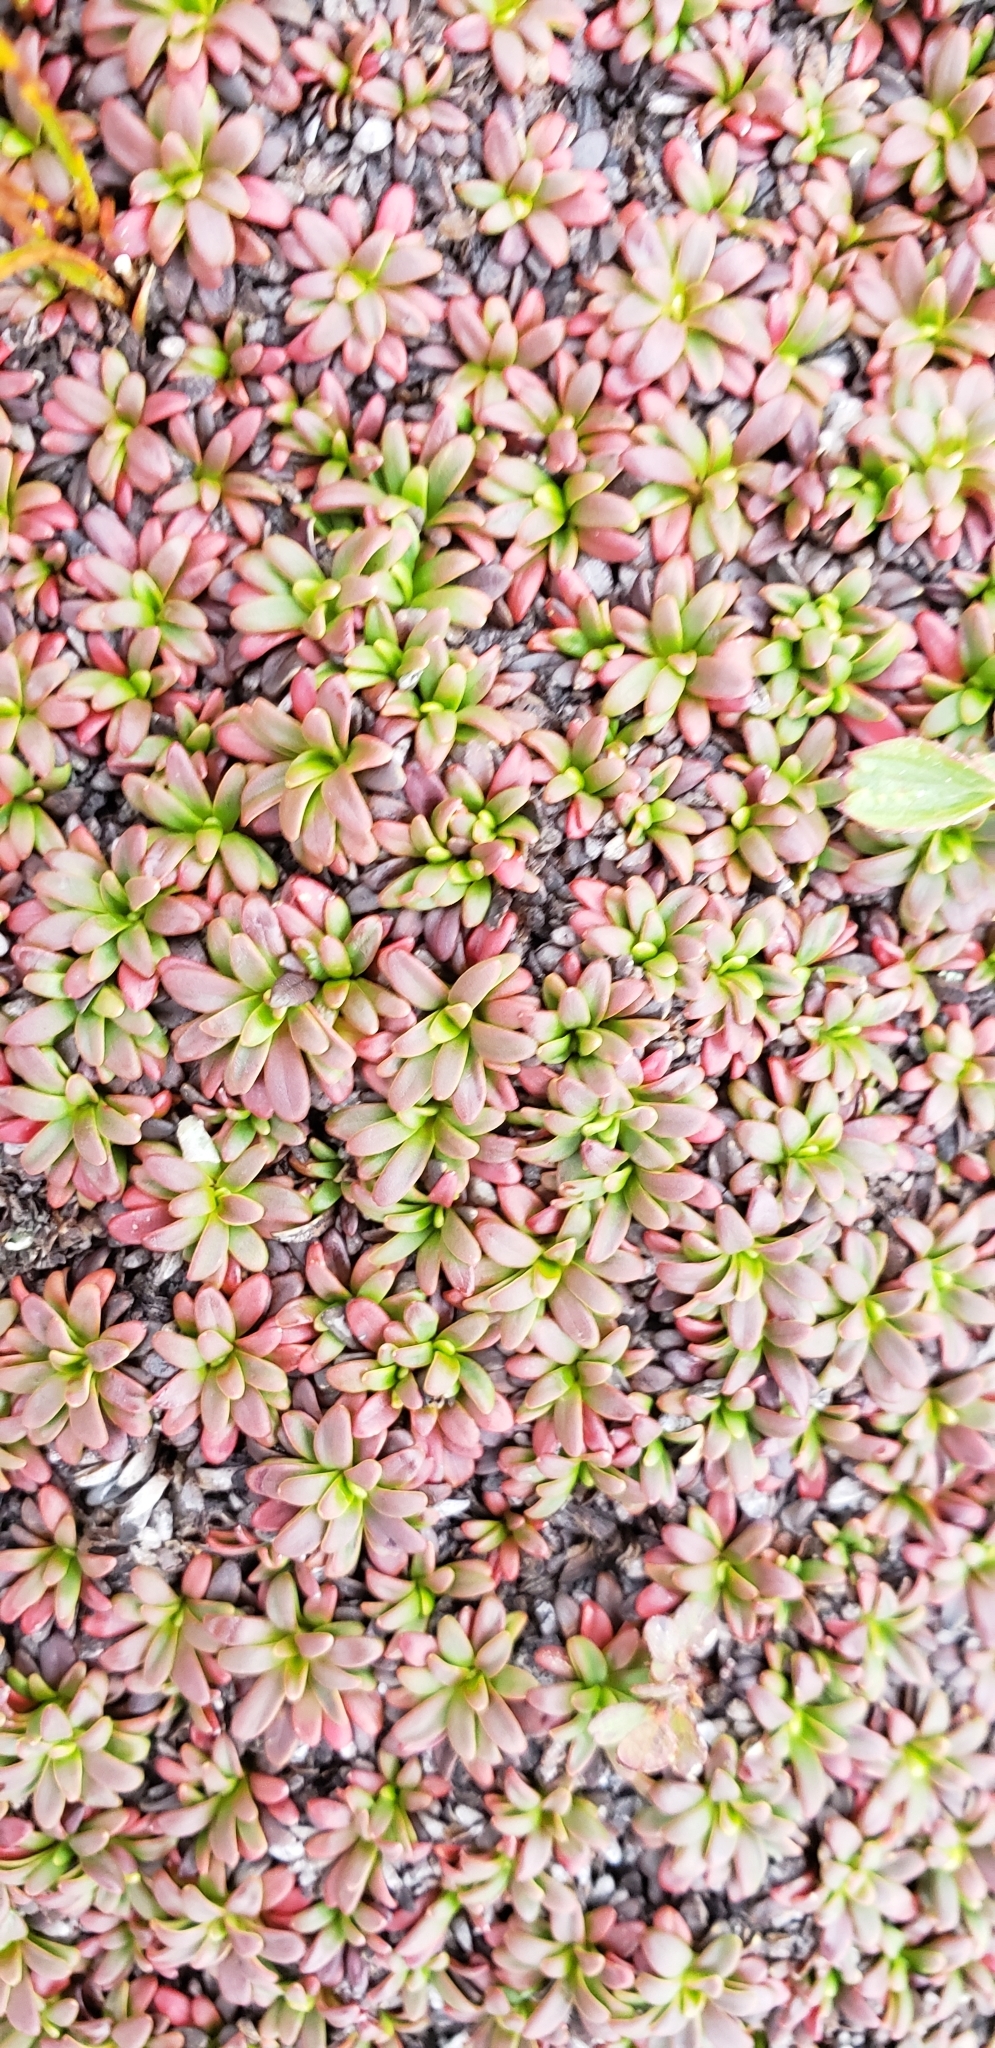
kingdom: Plantae
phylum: Tracheophyta
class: Magnoliopsida
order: Ericales
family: Diapensiaceae
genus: Diapensia
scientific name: Diapensia lapponica
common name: Diapensia
